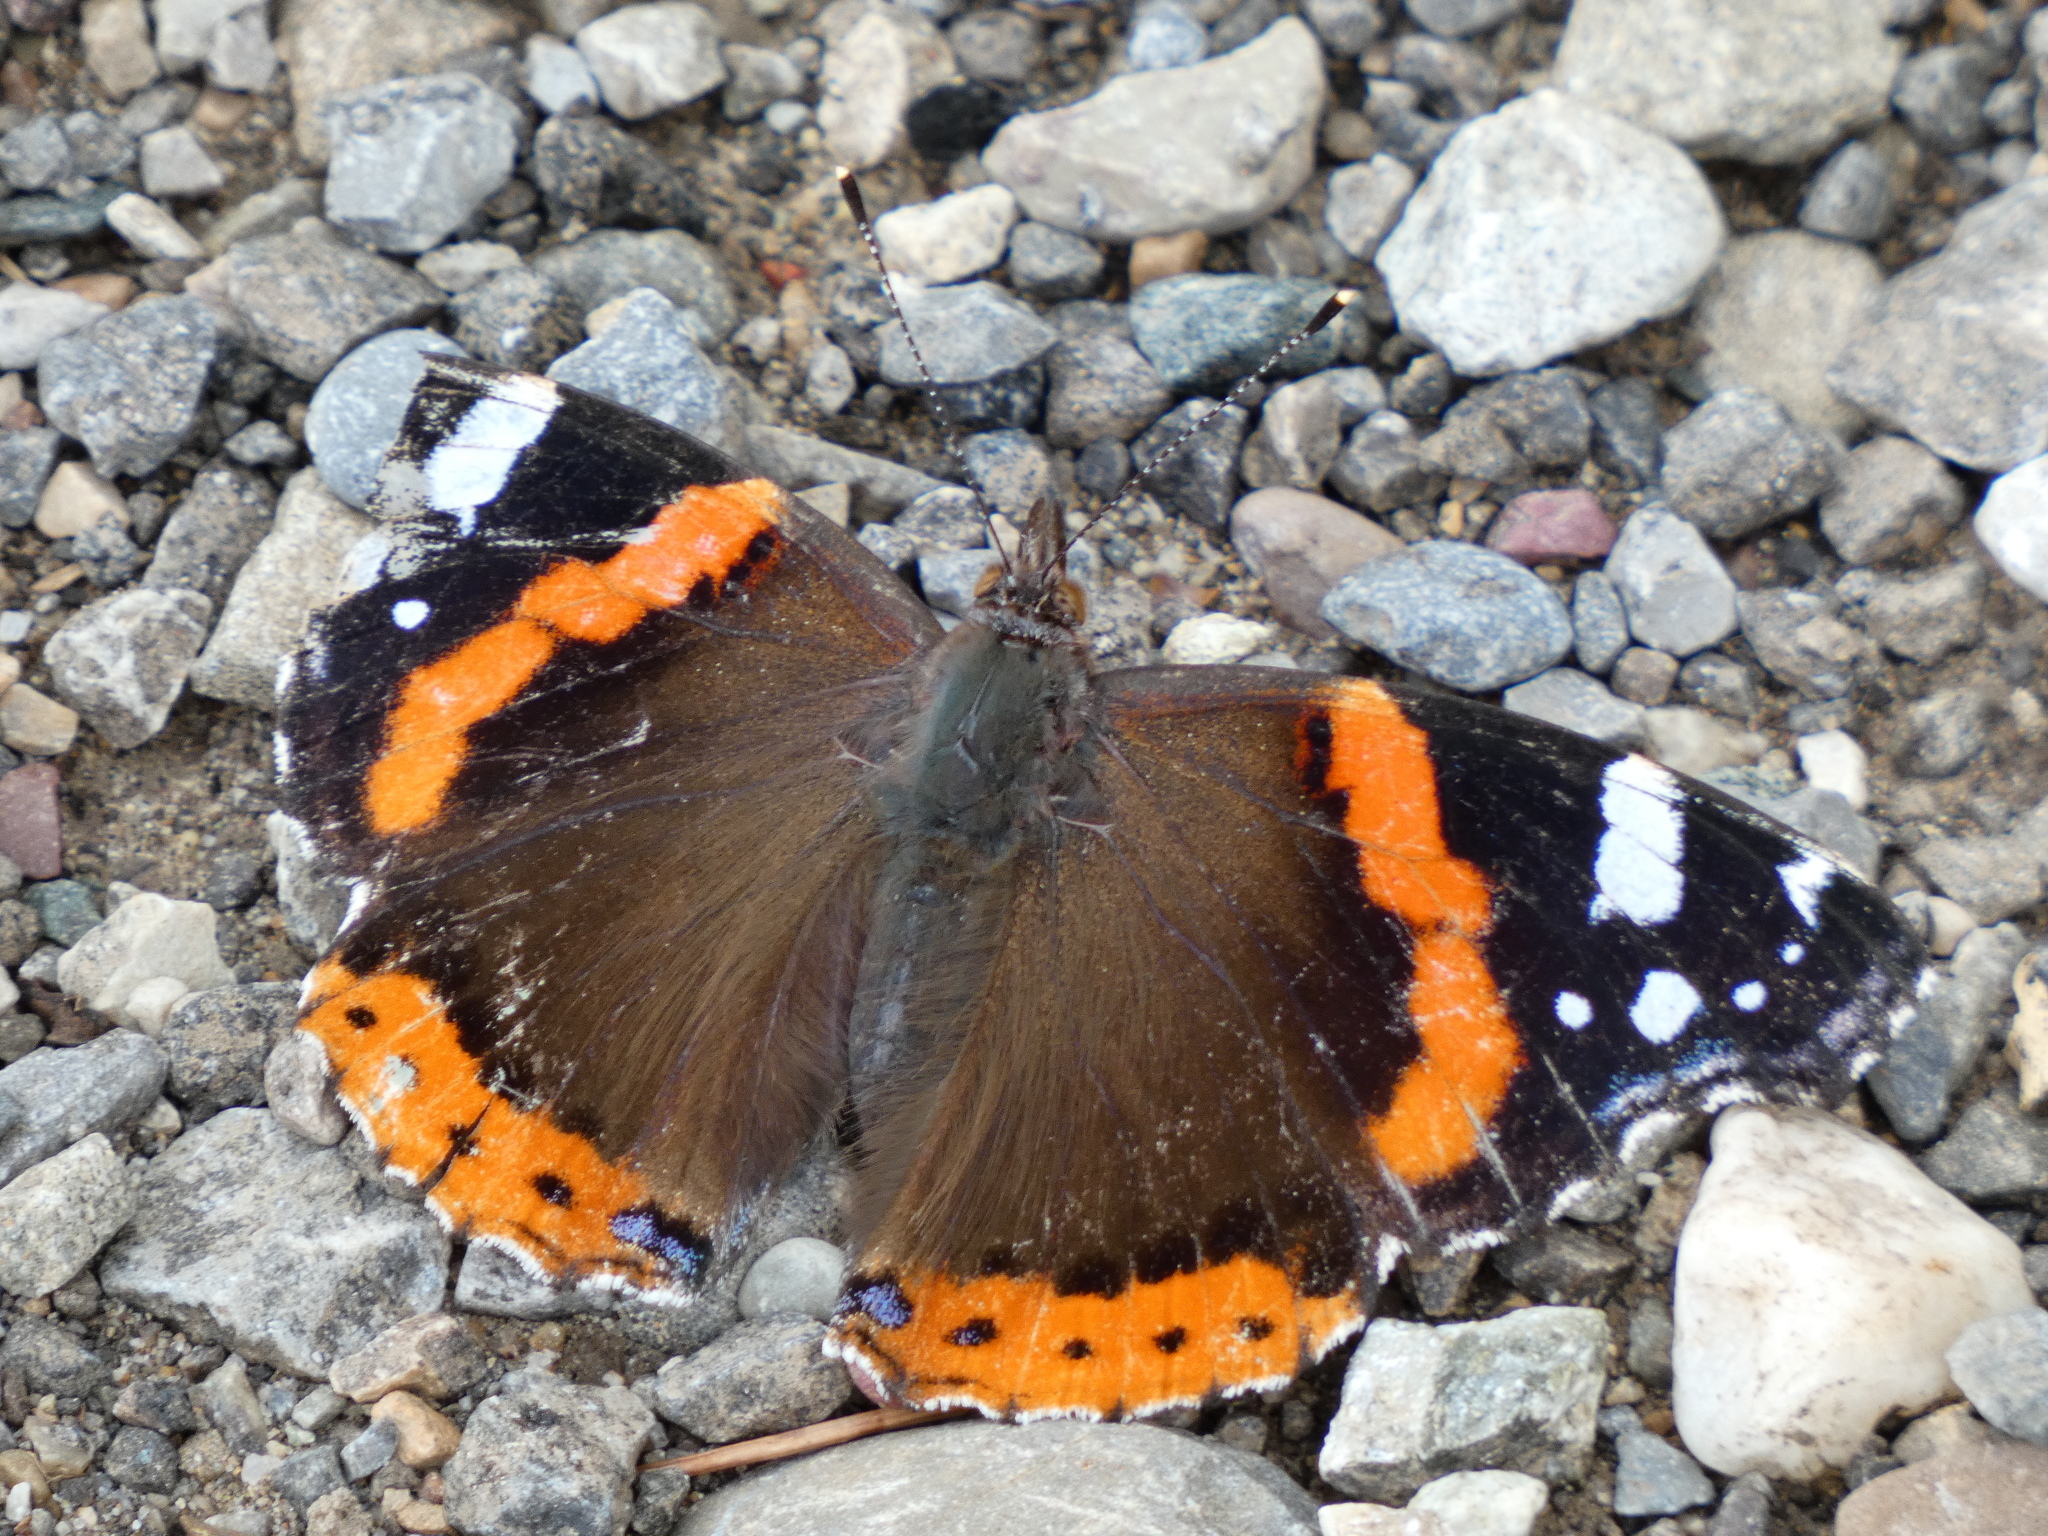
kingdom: Animalia
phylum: Arthropoda
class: Insecta
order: Lepidoptera
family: Nymphalidae
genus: Vanessa
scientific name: Vanessa atalanta
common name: Red admiral
